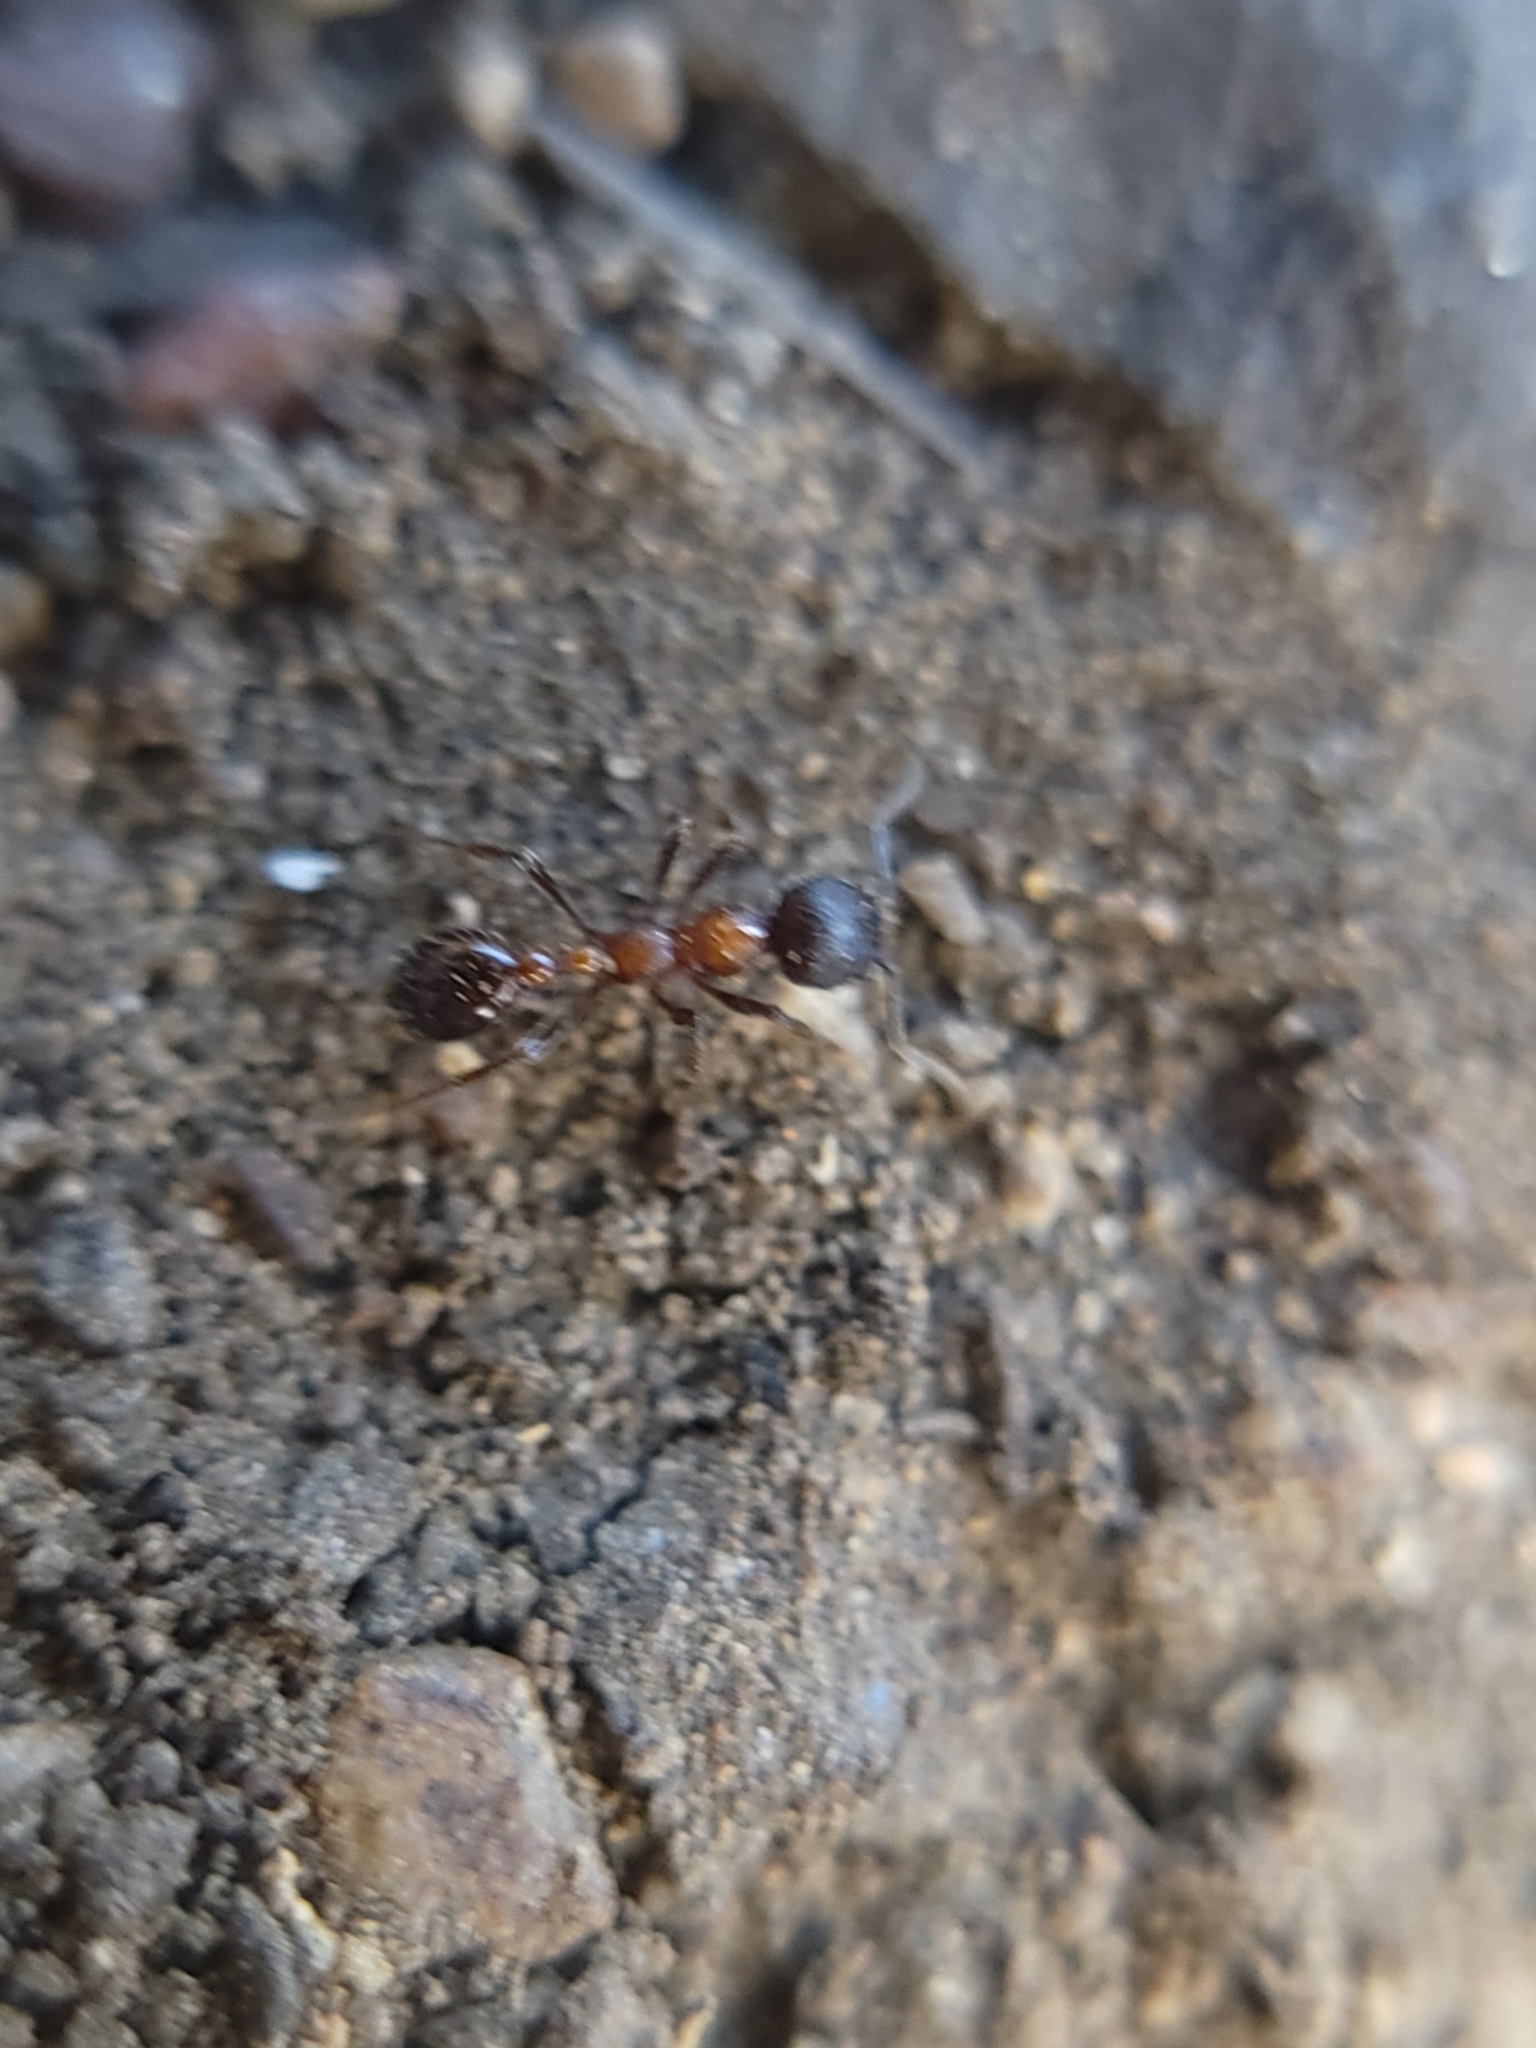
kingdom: Animalia
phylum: Arthropoda
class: Insecta
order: Hymenoptera
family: Formicidae
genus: Manica
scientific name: Manica bradleyi
